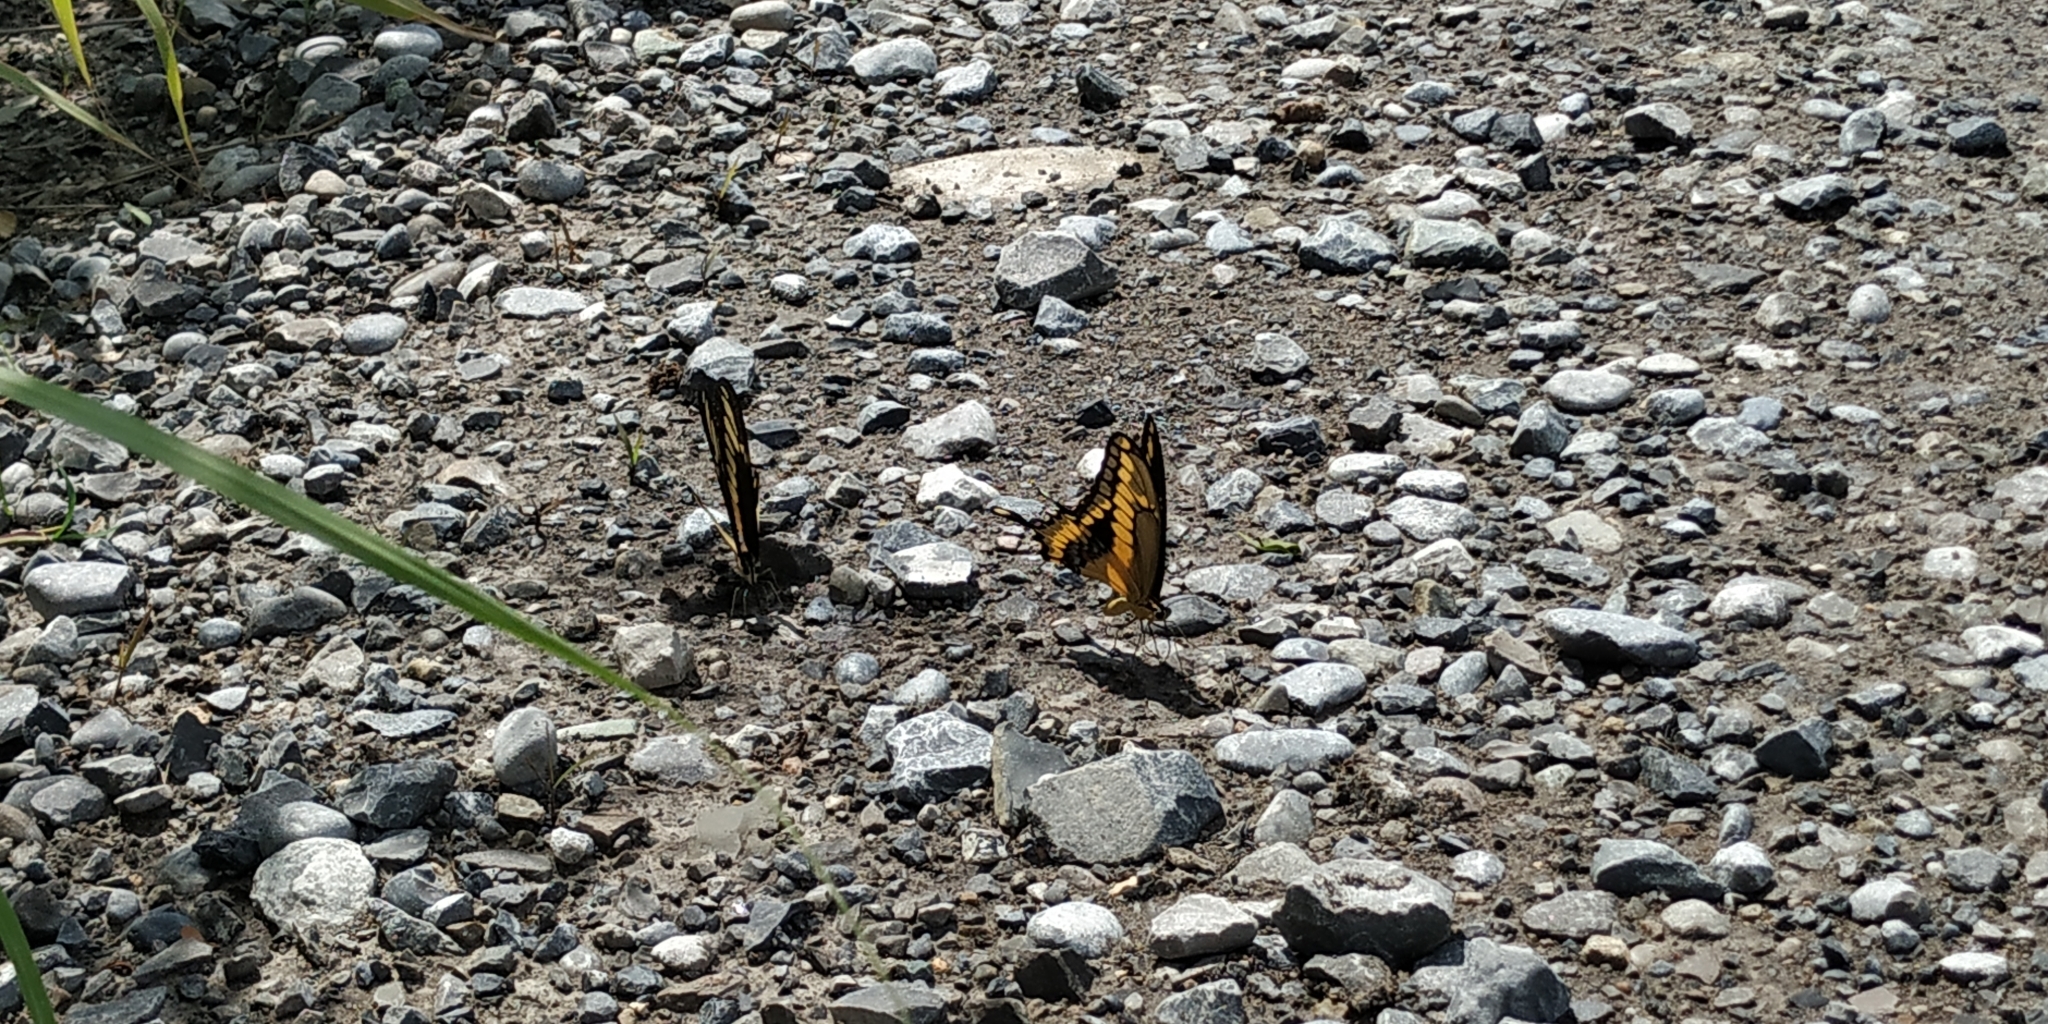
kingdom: Animalia
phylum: Arthropoda
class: Insecta
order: Lepidoptera
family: Papilionidae
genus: Papilio
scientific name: Papilio ornythion
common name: Ornythion swallowtail
